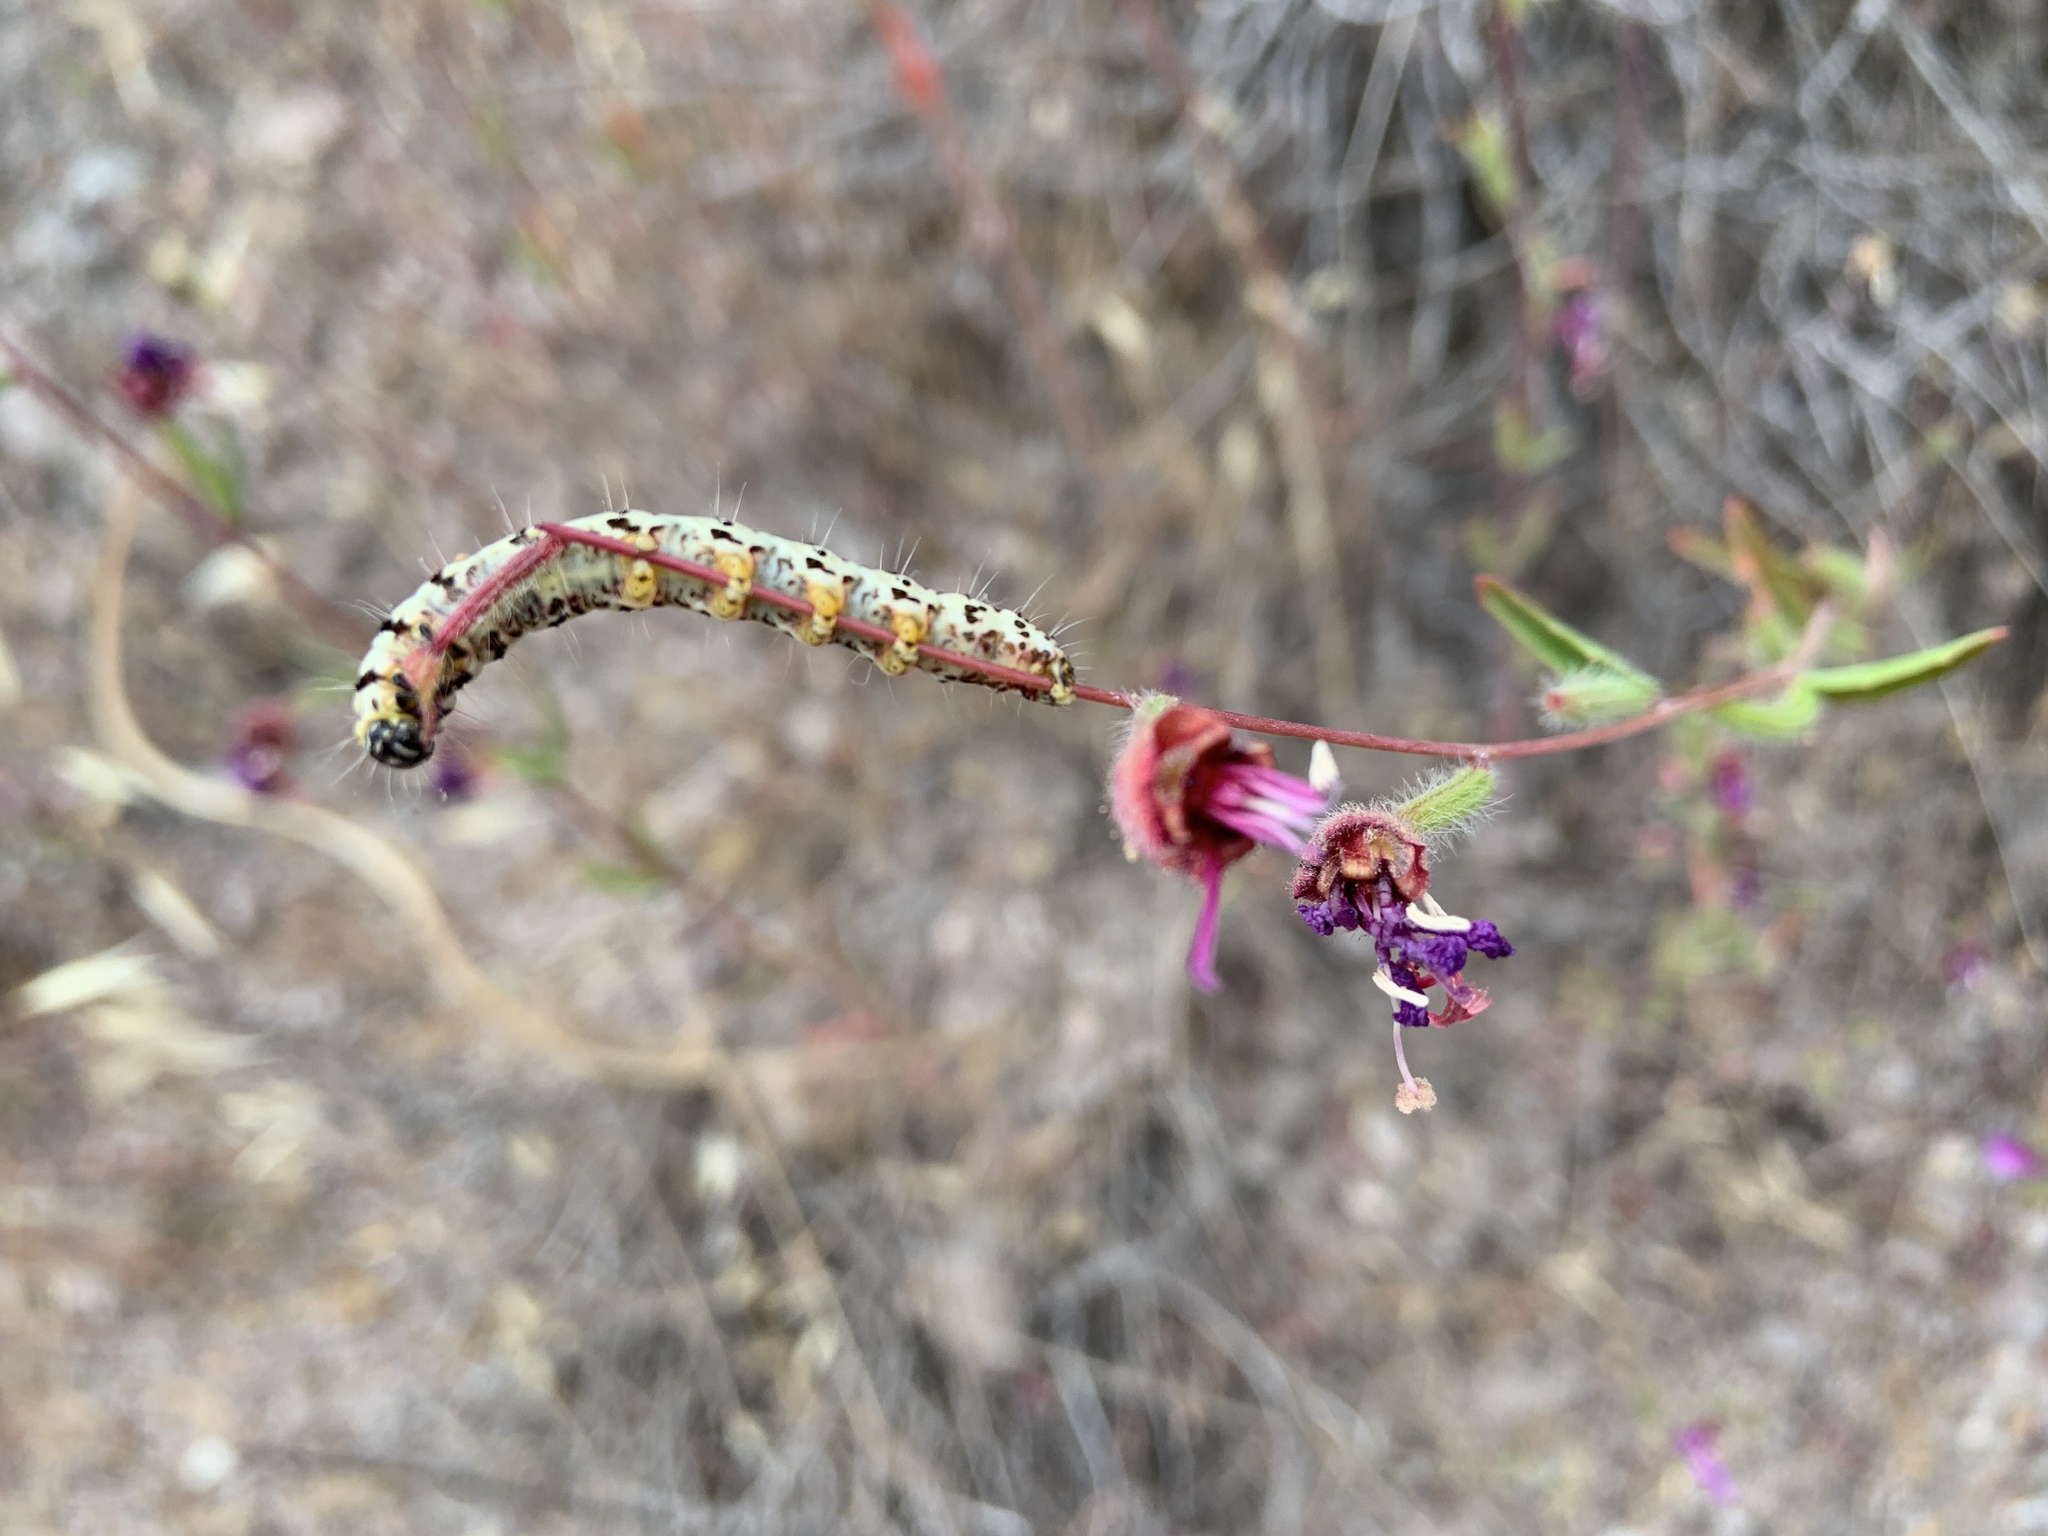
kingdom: Animalia
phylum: Arthropoda
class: Insecta
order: Lepidoptera
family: Noctuidae
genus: Alypia
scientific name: Alypia mariposa
